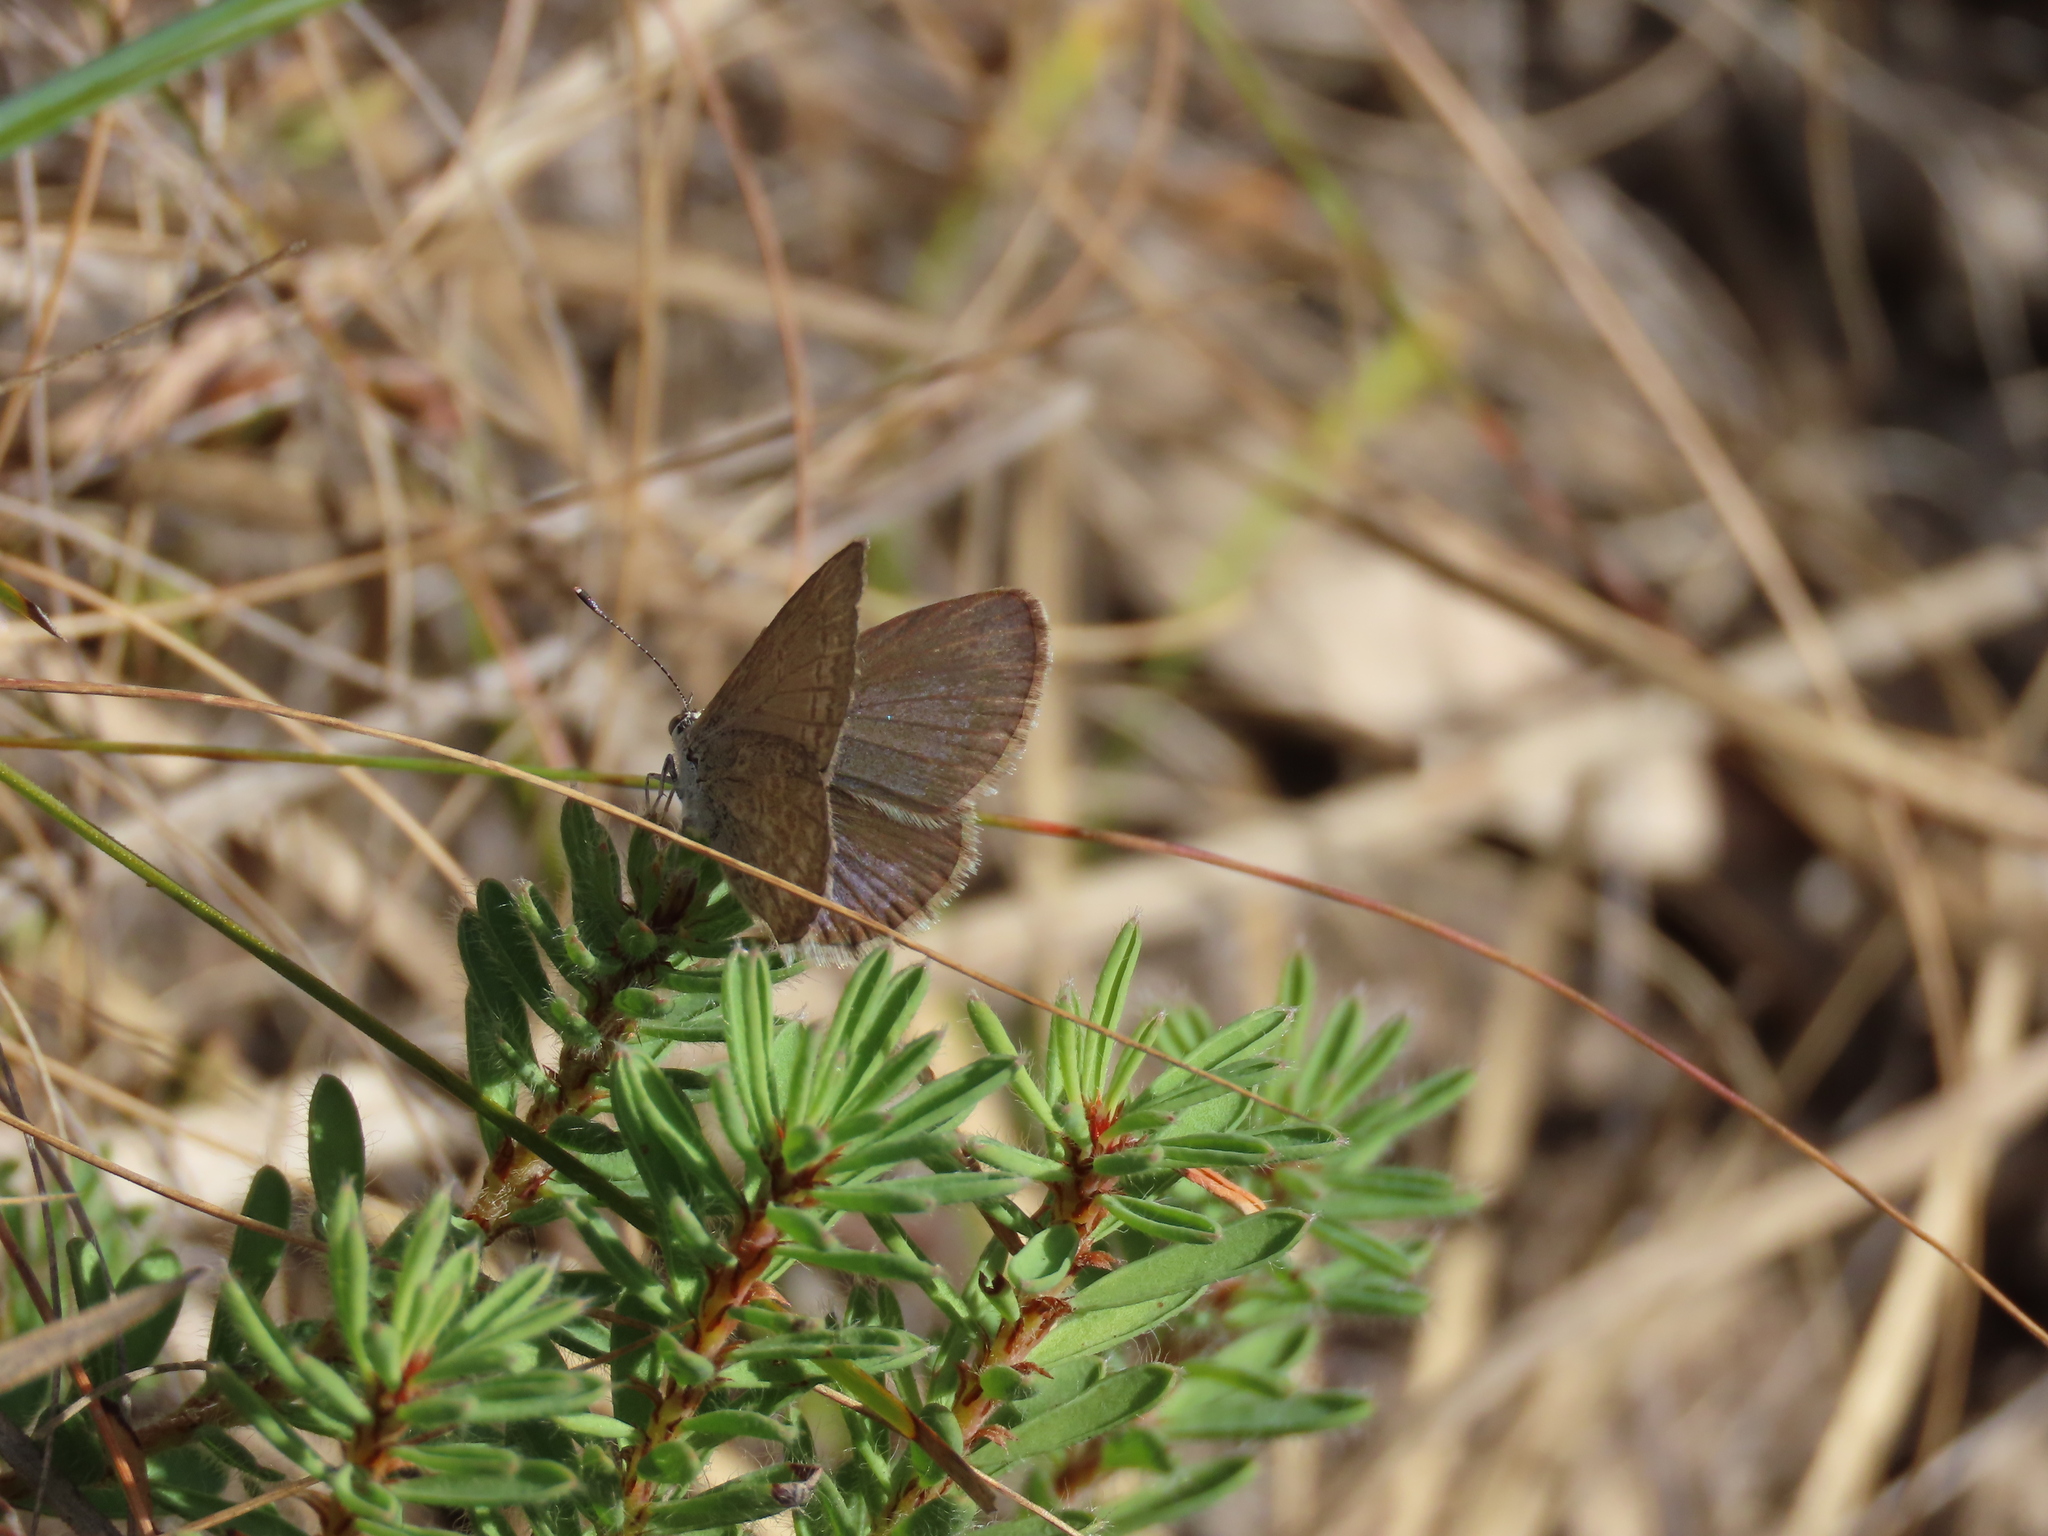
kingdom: Animalia
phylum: Arthropoda
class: Insecta
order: Lepidoptera
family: Lycaenidae
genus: Zizina
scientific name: Zizina otis
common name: Lesser grass blue
